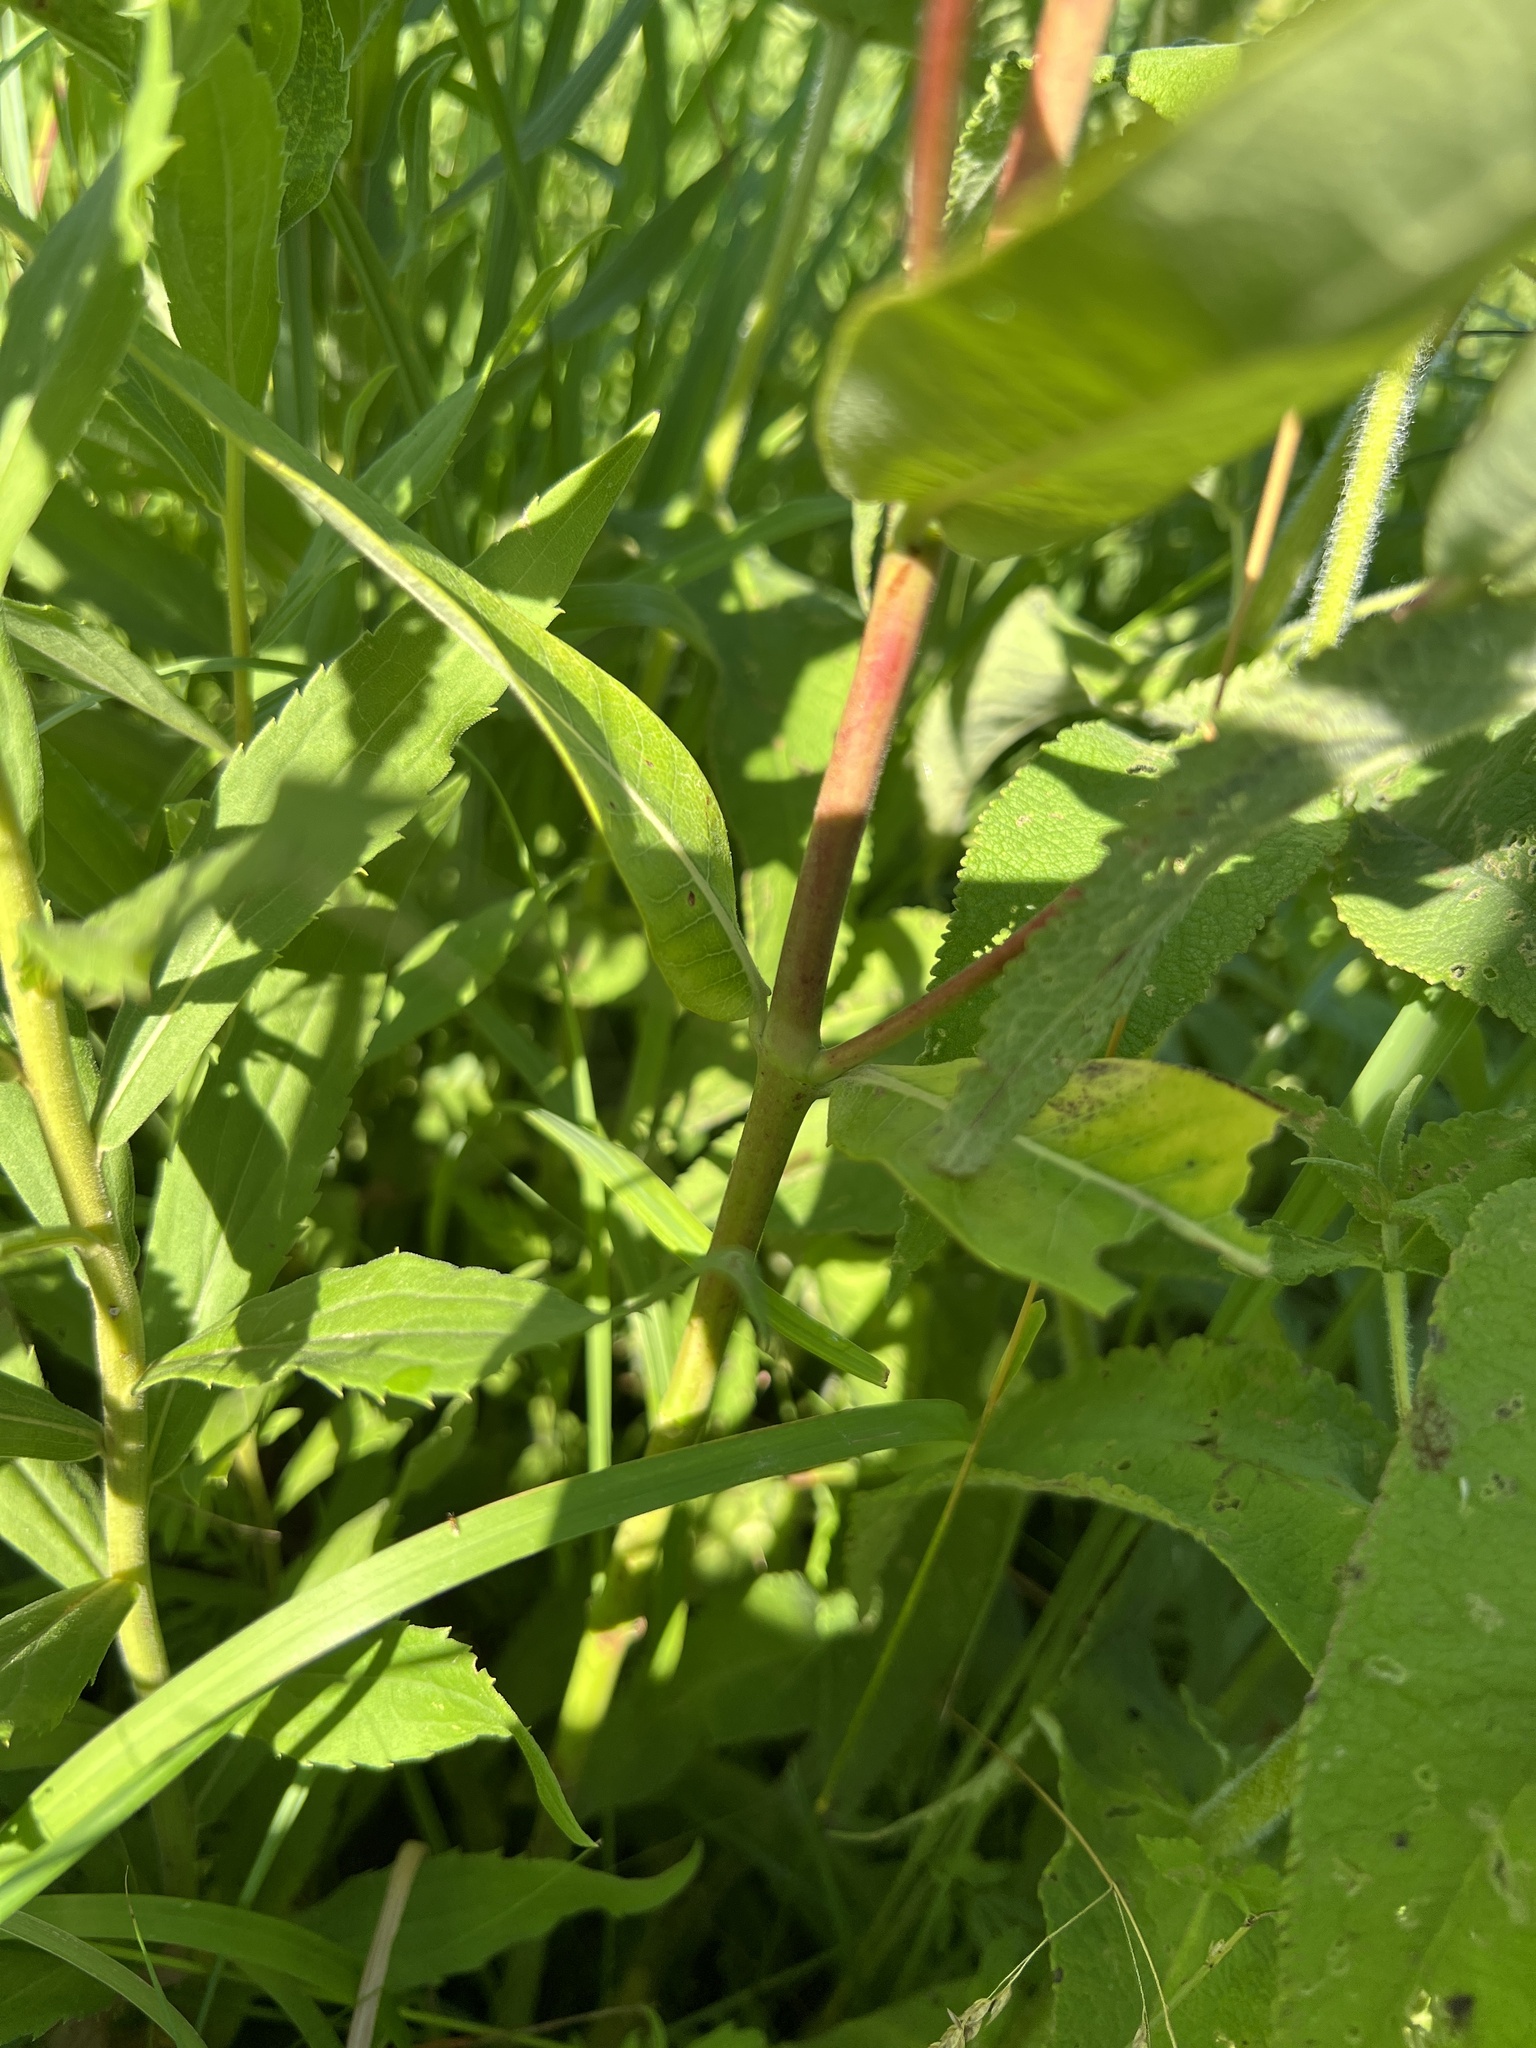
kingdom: Plantae
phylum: Tracheophyta
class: Magnoliopsida
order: Gentianales
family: Apocynaceae
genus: Apocynum
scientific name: Apocynum cannabinum
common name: Hemp dogbane
